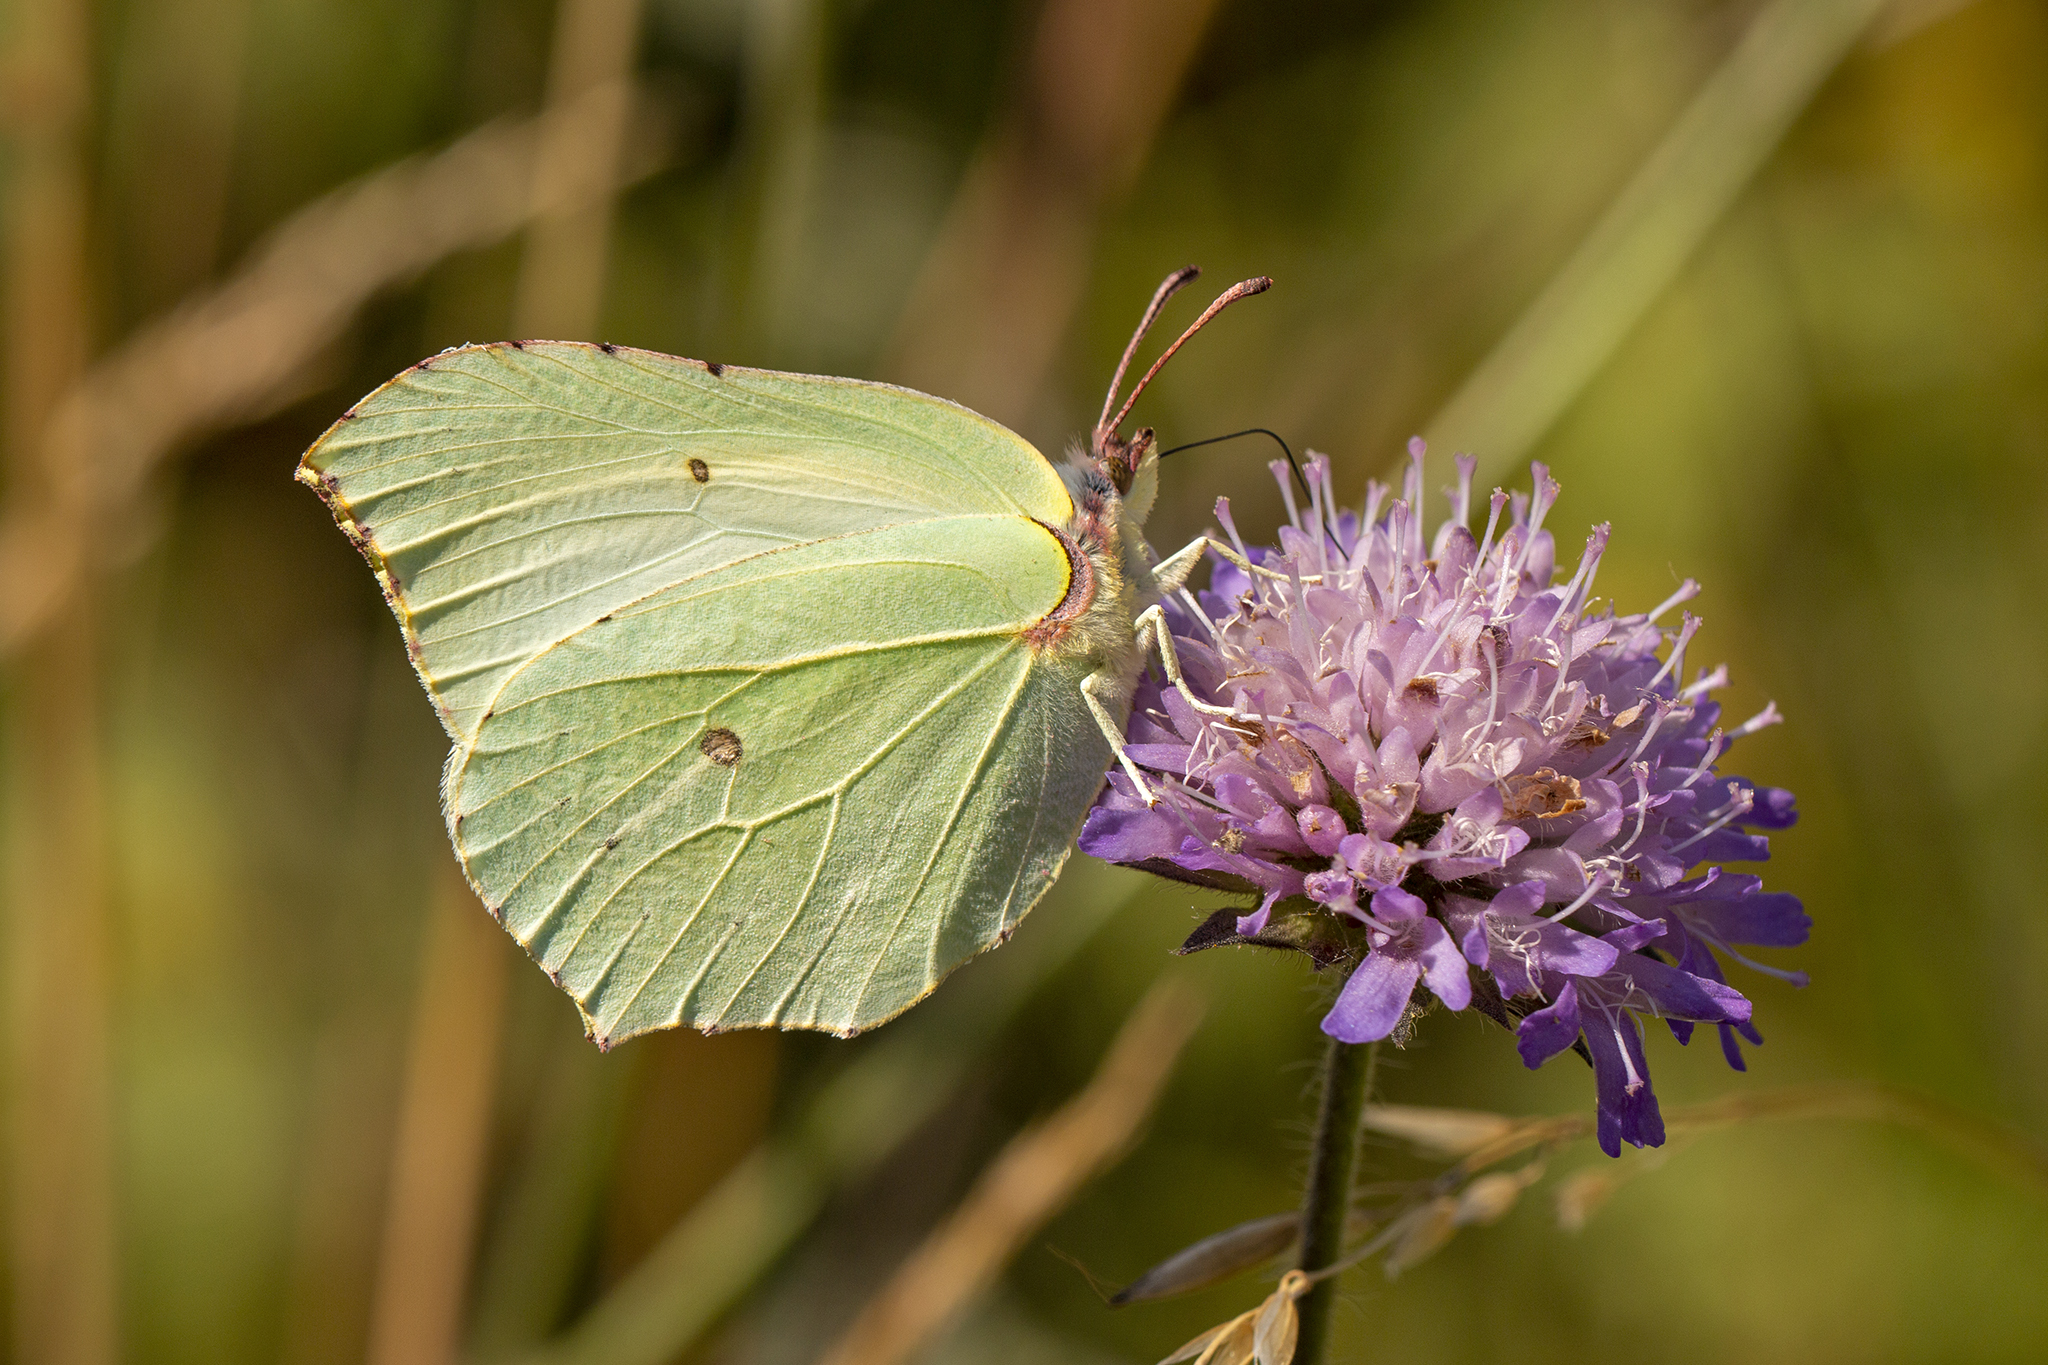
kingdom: Animalia
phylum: Arthropoda
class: Insecta
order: Lepidoptera
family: Pieridae
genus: Gonepteryx
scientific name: Gonepteryx rhamni
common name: Brimstone
